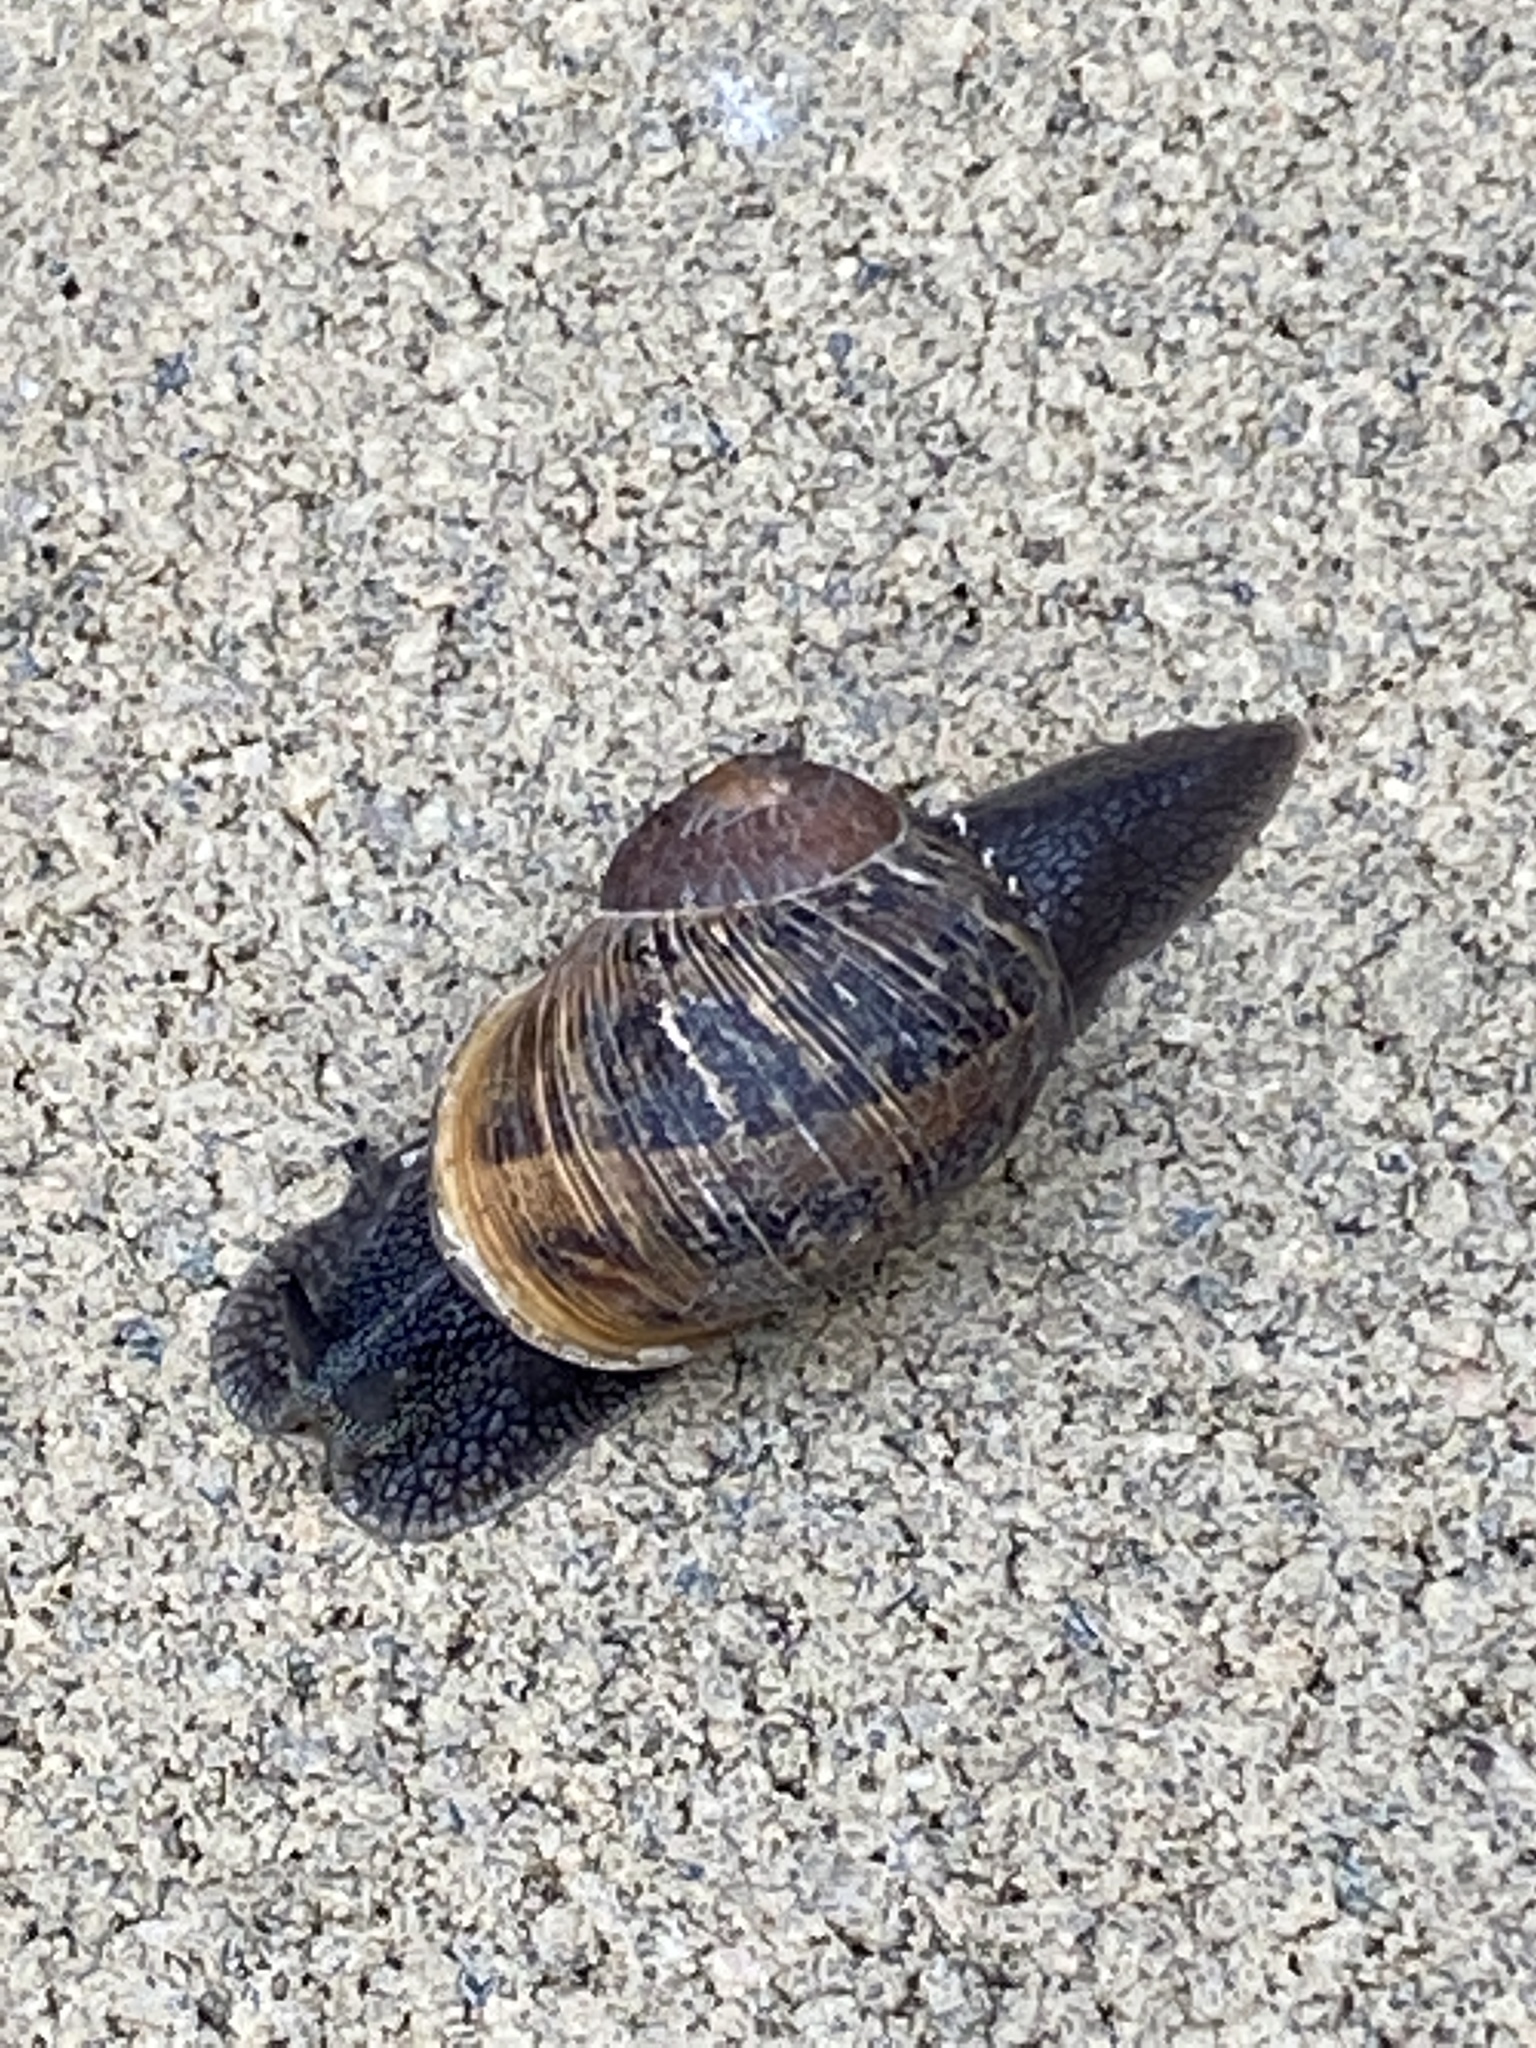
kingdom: Animalia
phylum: Mollusca
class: Gastropoda
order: Stylommatophora
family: Helicidae
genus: Cornu
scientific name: Cornu aspersum
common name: Brown garden snail
